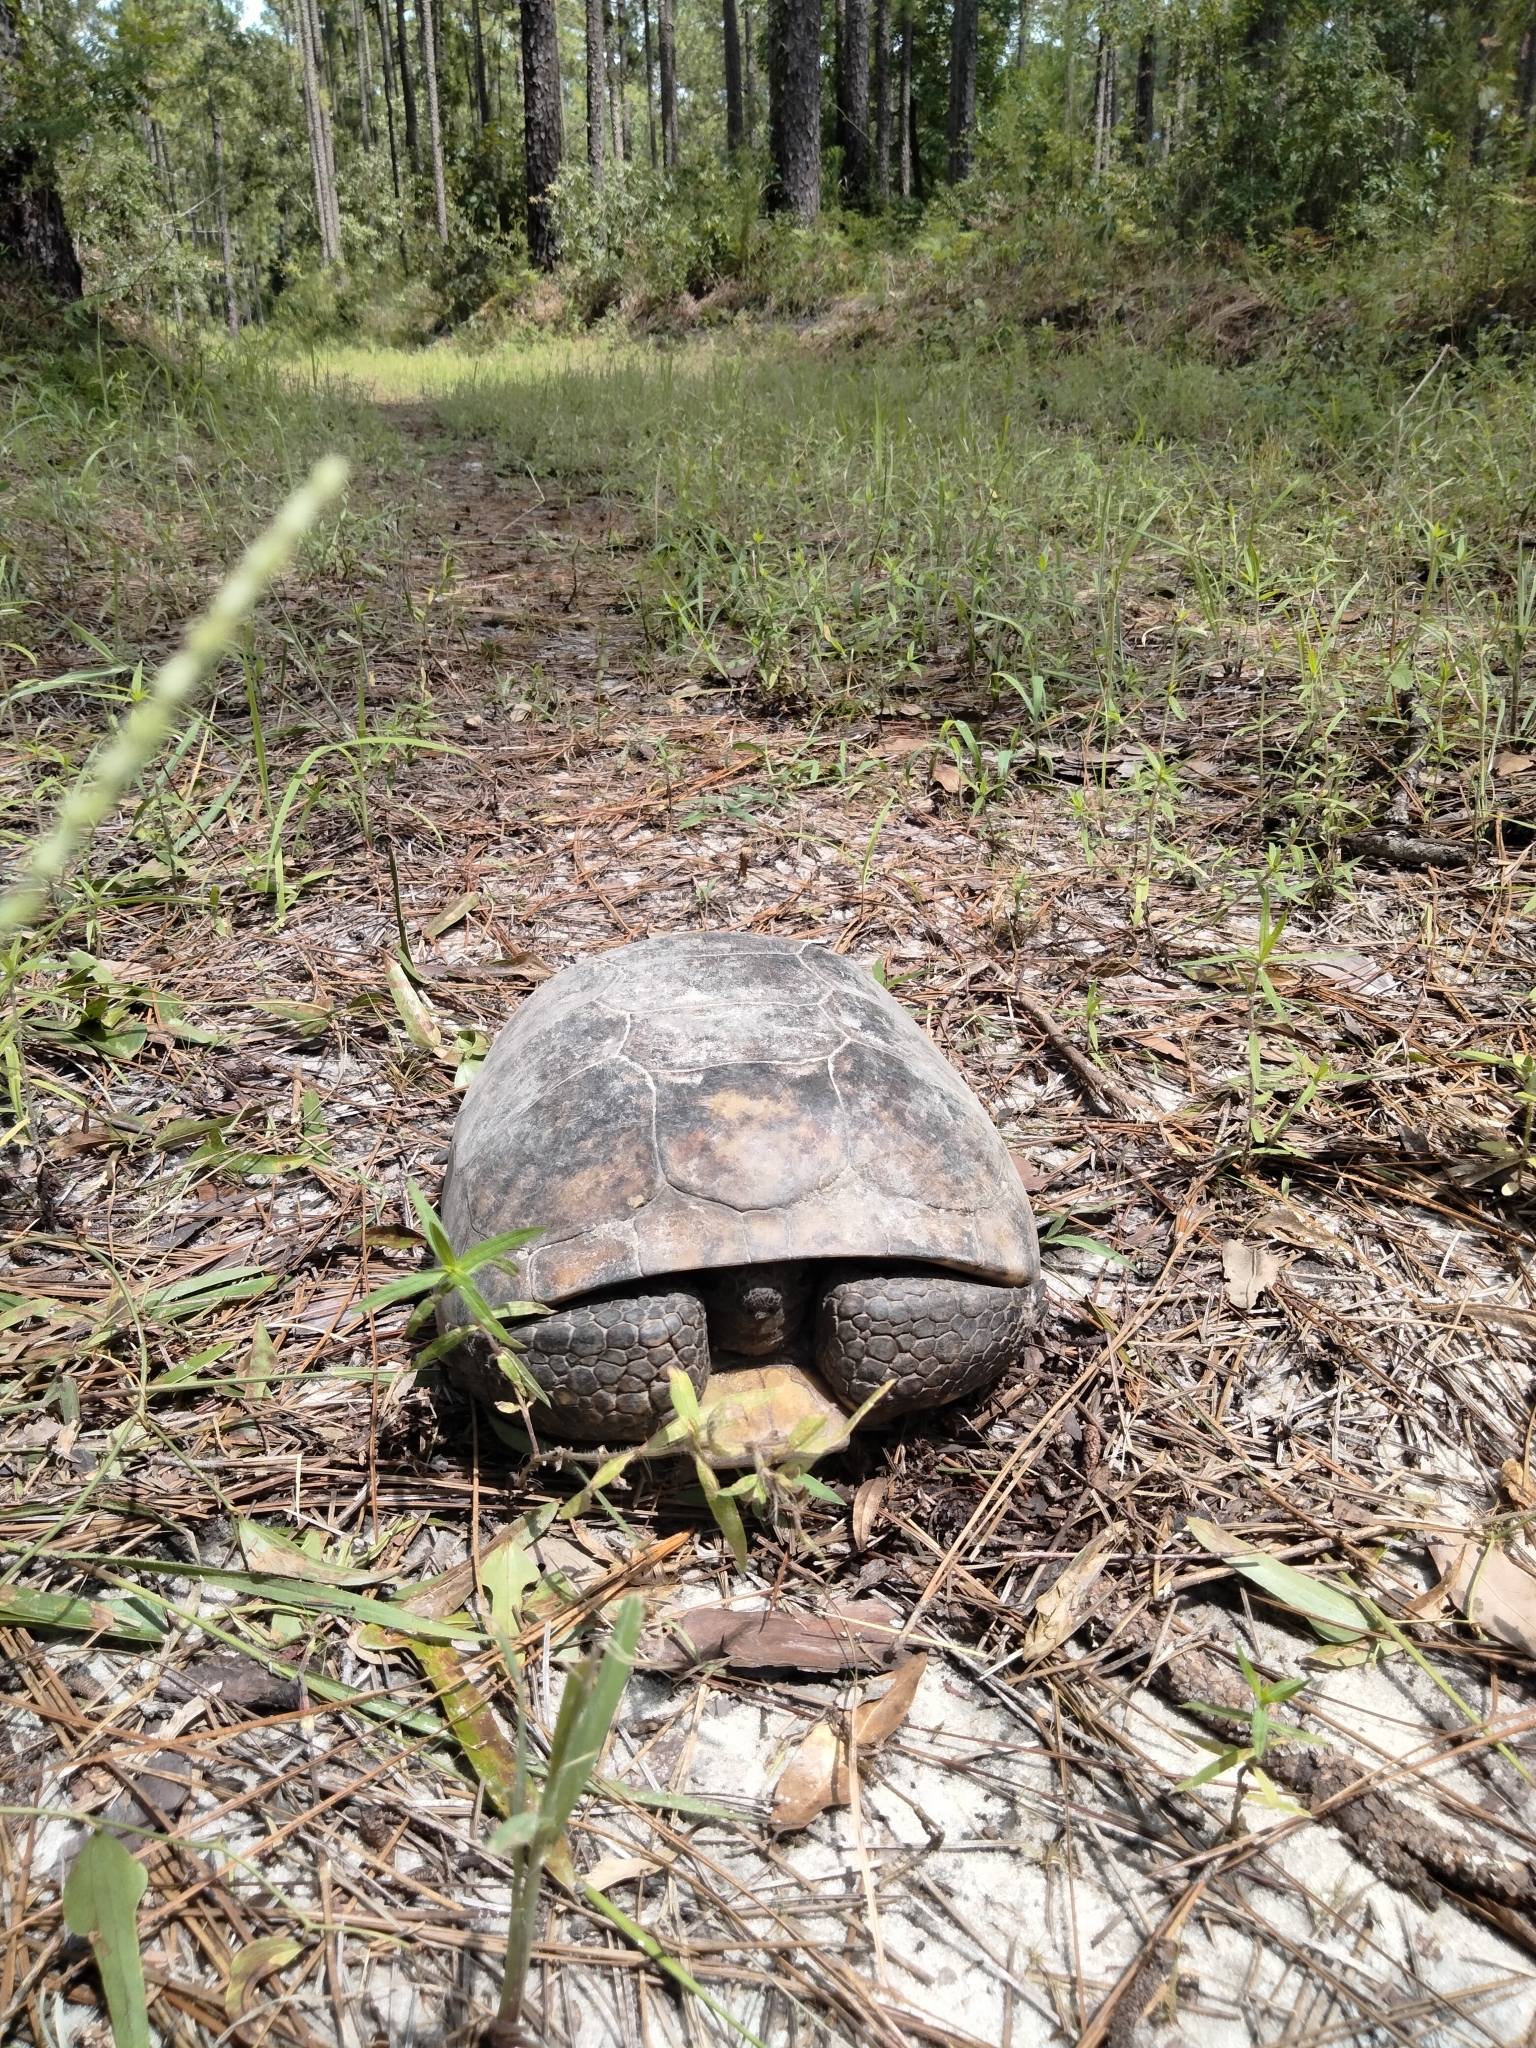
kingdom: Animalia
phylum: Chordata
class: Testudines
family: Testudinidae
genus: Gopherus
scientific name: Gopherus polyphemus
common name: Florida gopher tortoise
